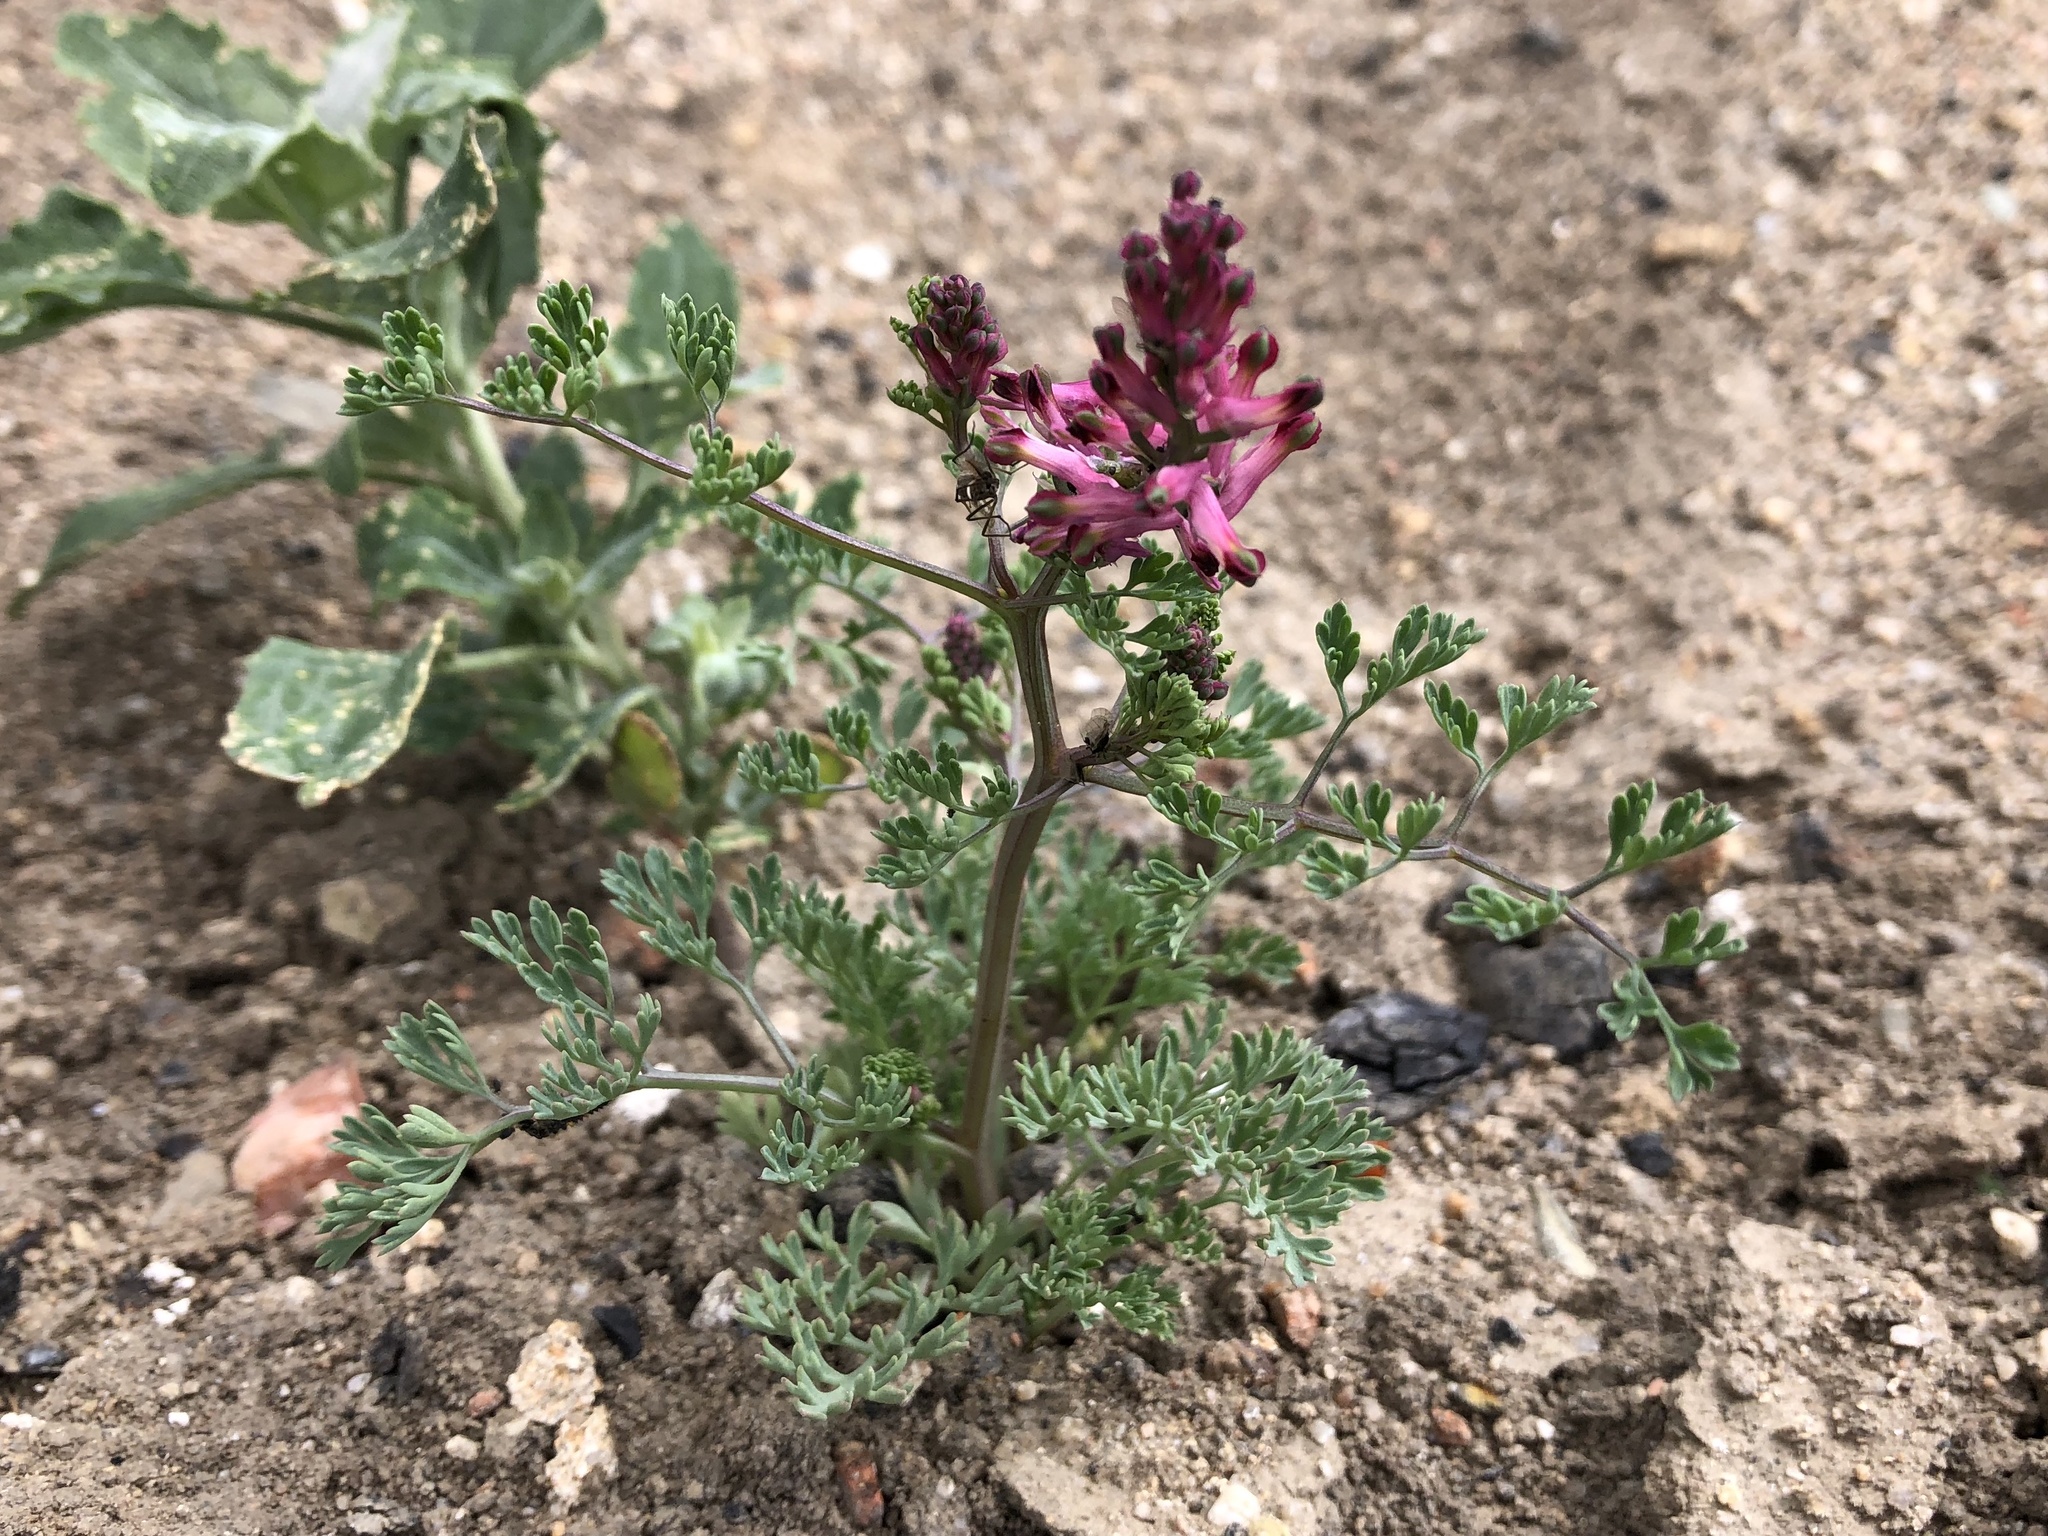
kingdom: Plantae
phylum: Tracheophyta
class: Magnoliopsida
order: Ranunculales
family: Papaveraceae
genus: Fumaria
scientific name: Fumaria officinalis
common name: Common fumitory
